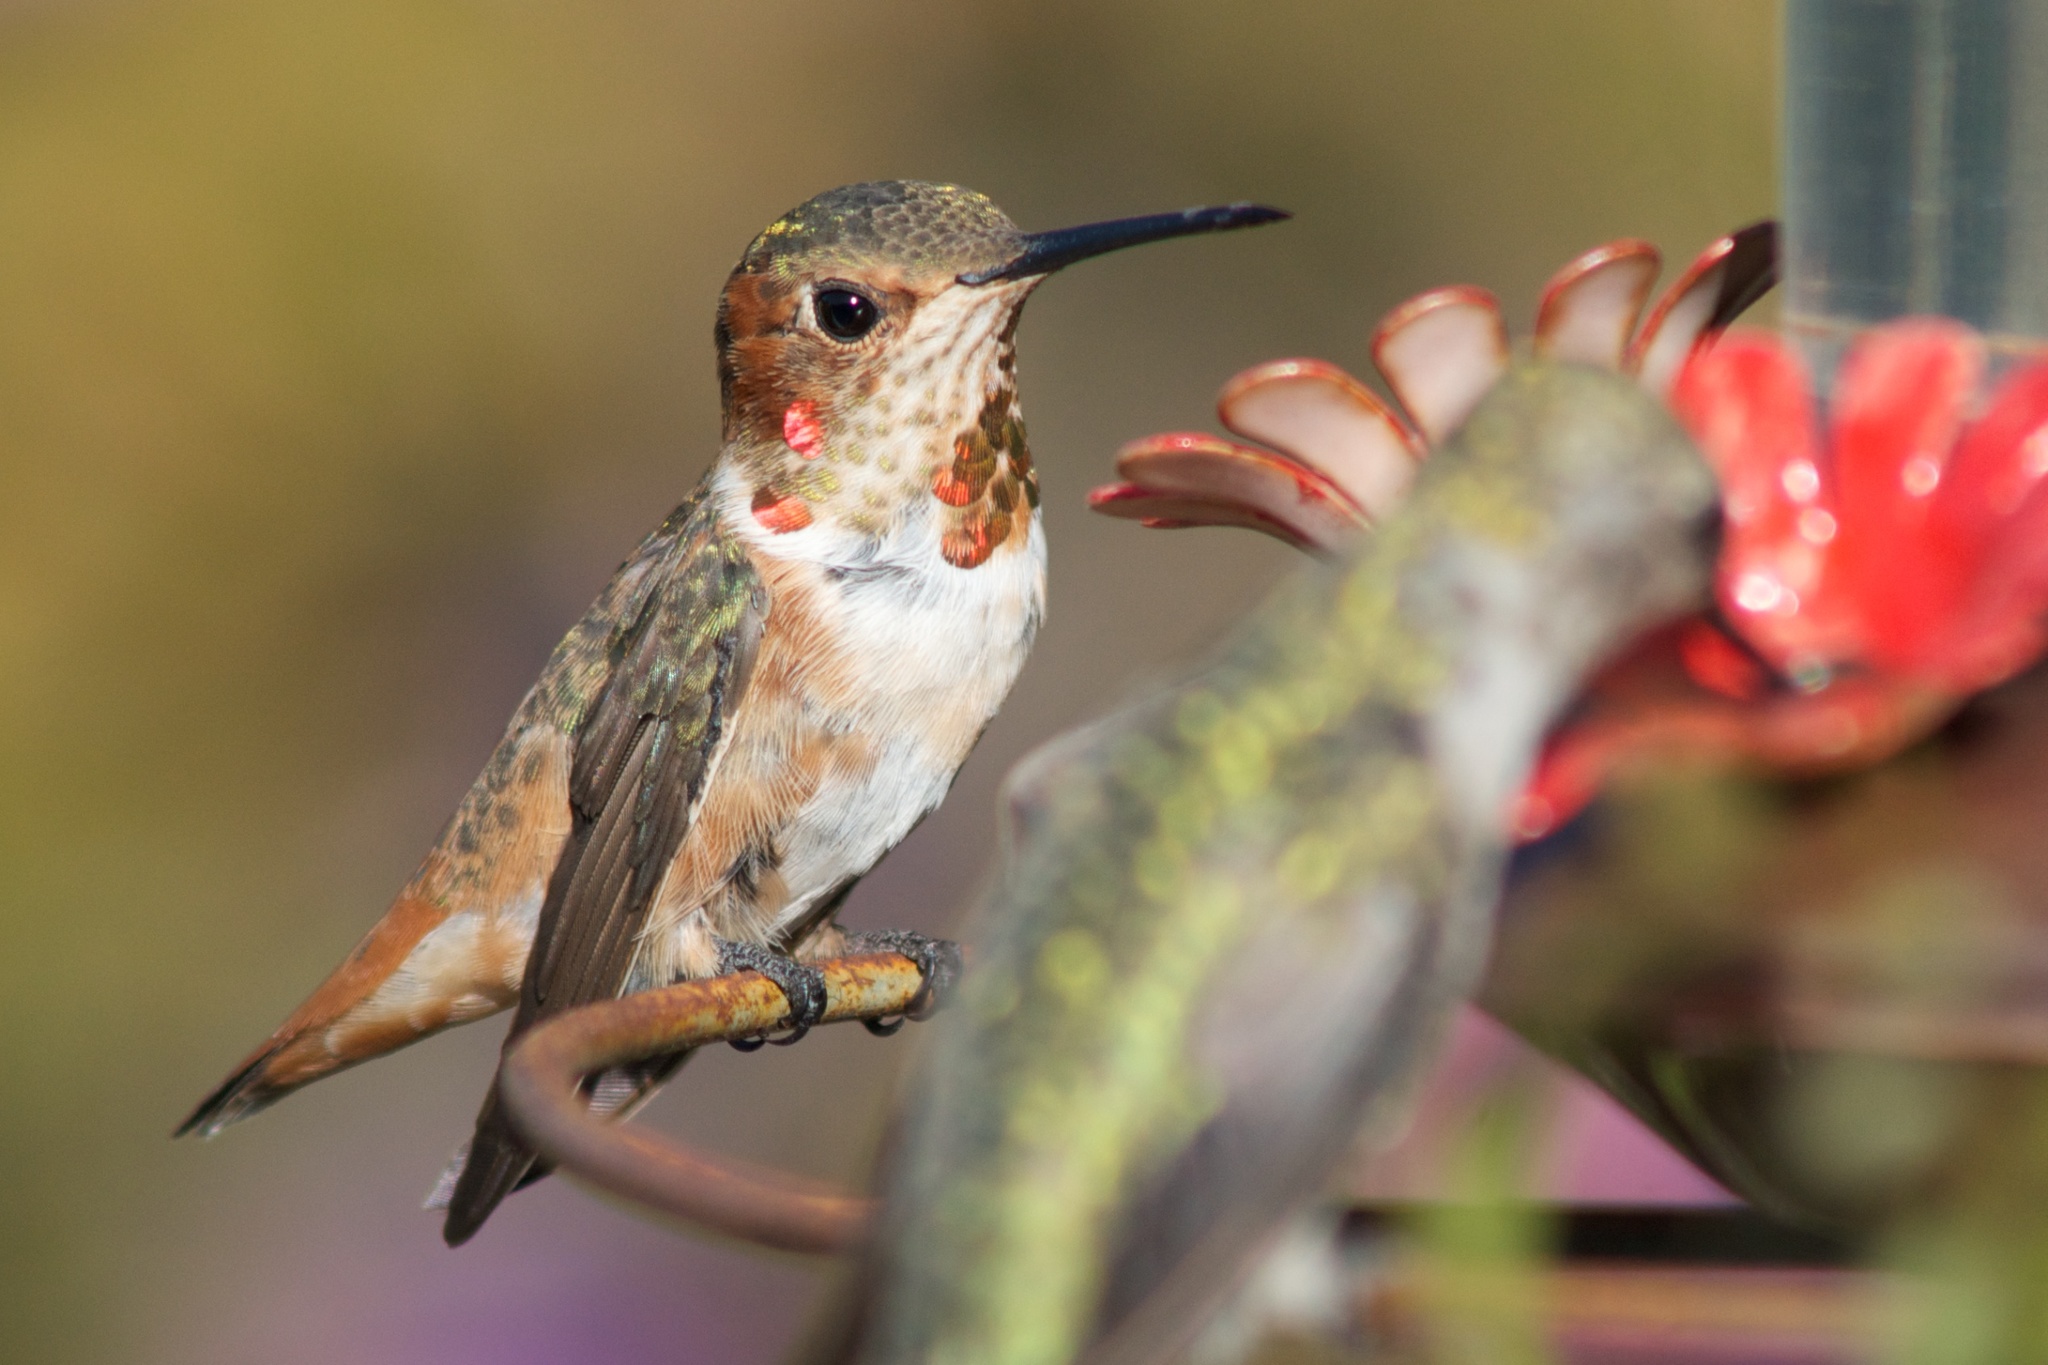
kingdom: Animalia
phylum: Chordata
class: Aves
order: Apodiformes
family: Trochilidae
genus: Selasphorus
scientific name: Selasphorus sasin
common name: Allen's hummingbird
